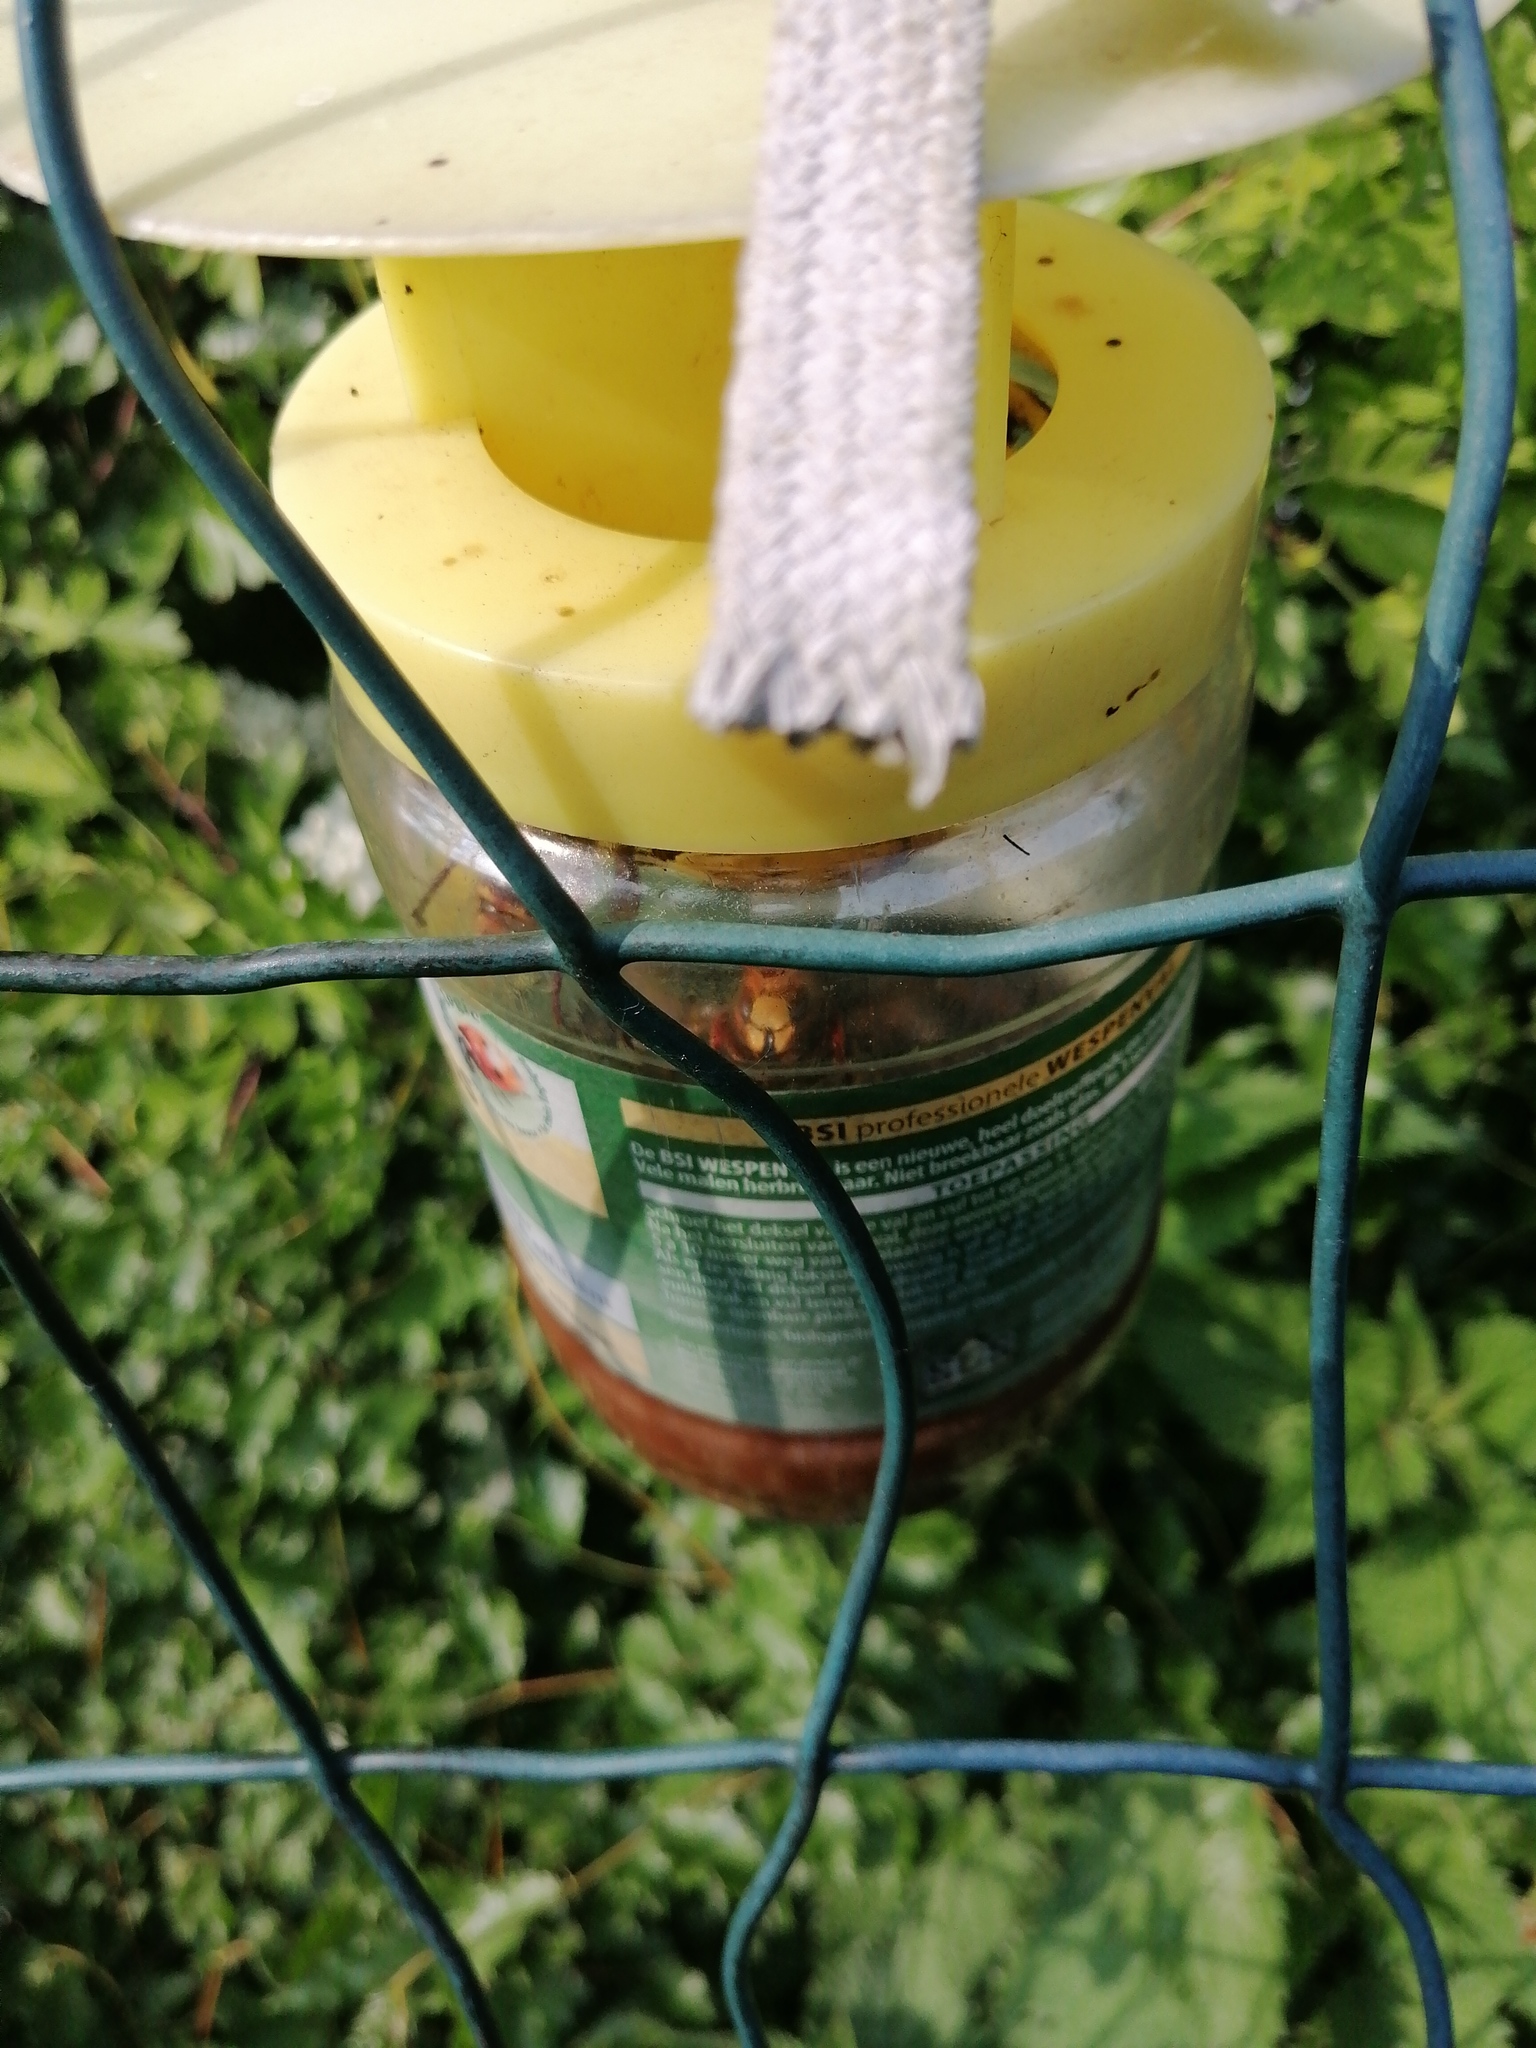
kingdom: Animalia
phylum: Arthropoda
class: Insecta
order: Hymenoptera
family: Vespidae
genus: Vespa
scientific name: Vespa crabro
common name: Hornet
